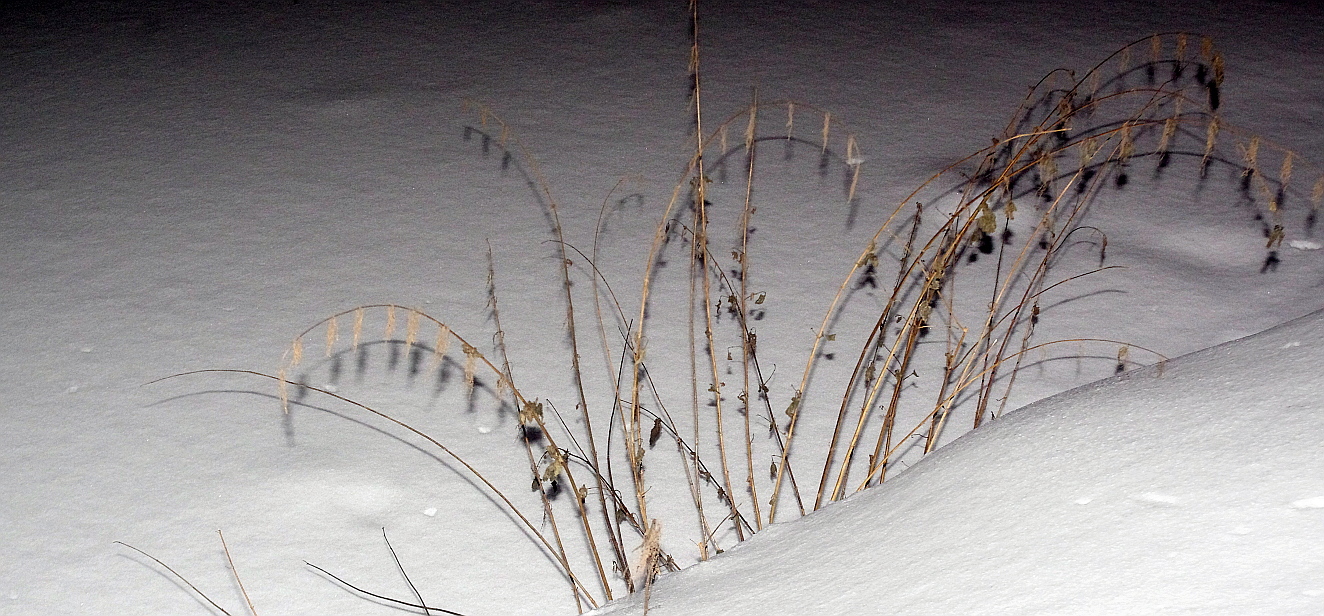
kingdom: Plantae
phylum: Tracheophyta
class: Magnoliopsida
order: Rosales
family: Urticaceae
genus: Urtica
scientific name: Urtica dioica
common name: Common nettle
